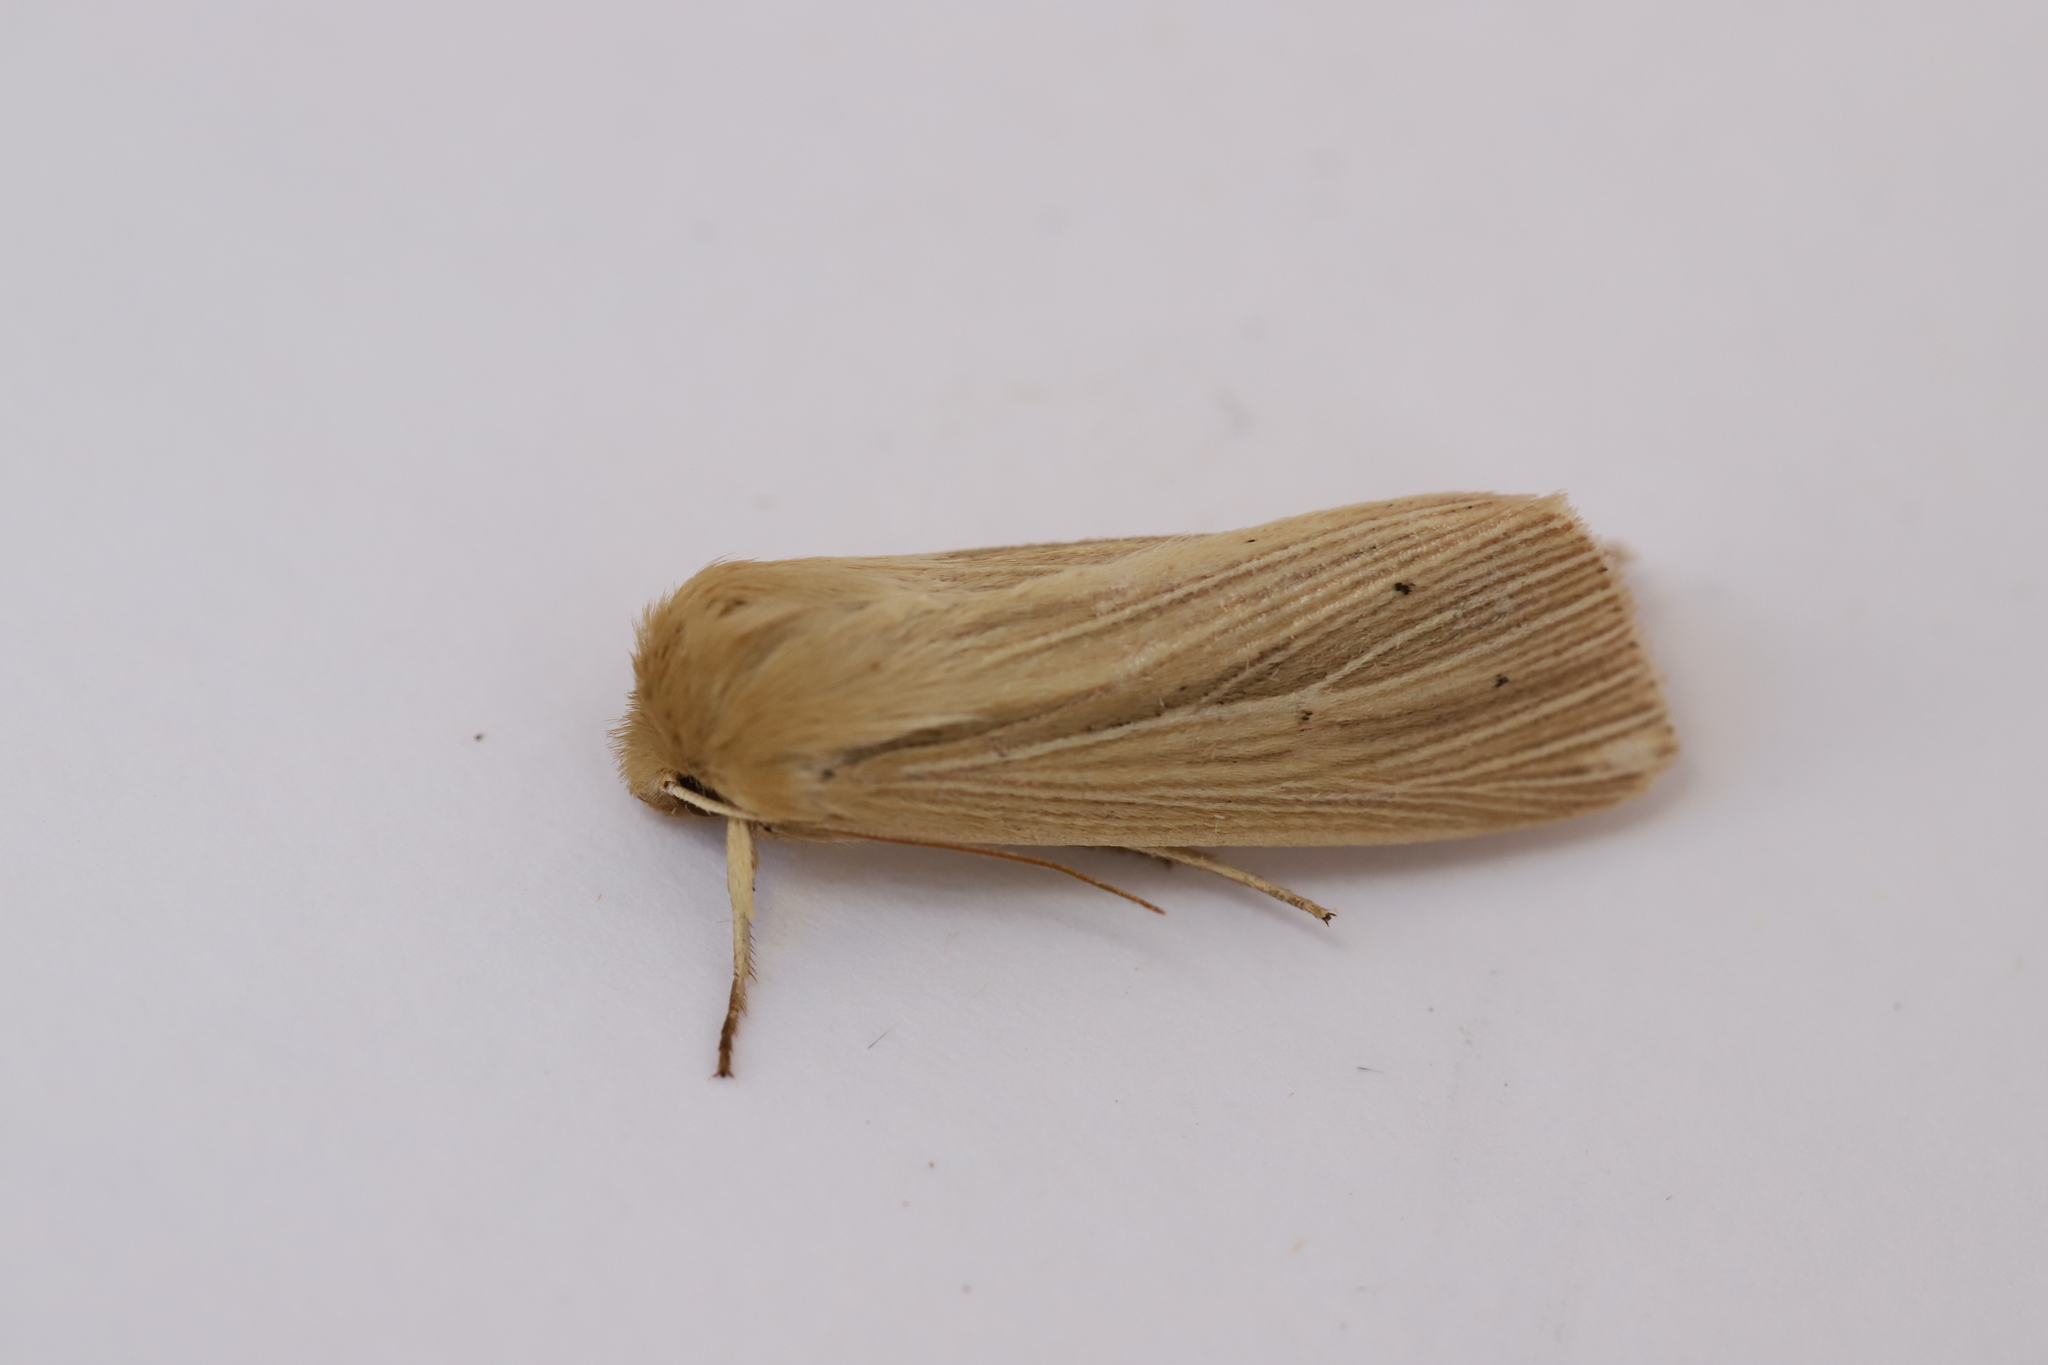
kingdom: Animalia
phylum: Arthropoda
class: Insecta
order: Lepidoptera
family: Noctuidae
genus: Mythimna
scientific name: Mythimna oxygala
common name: Lesser wainscot
